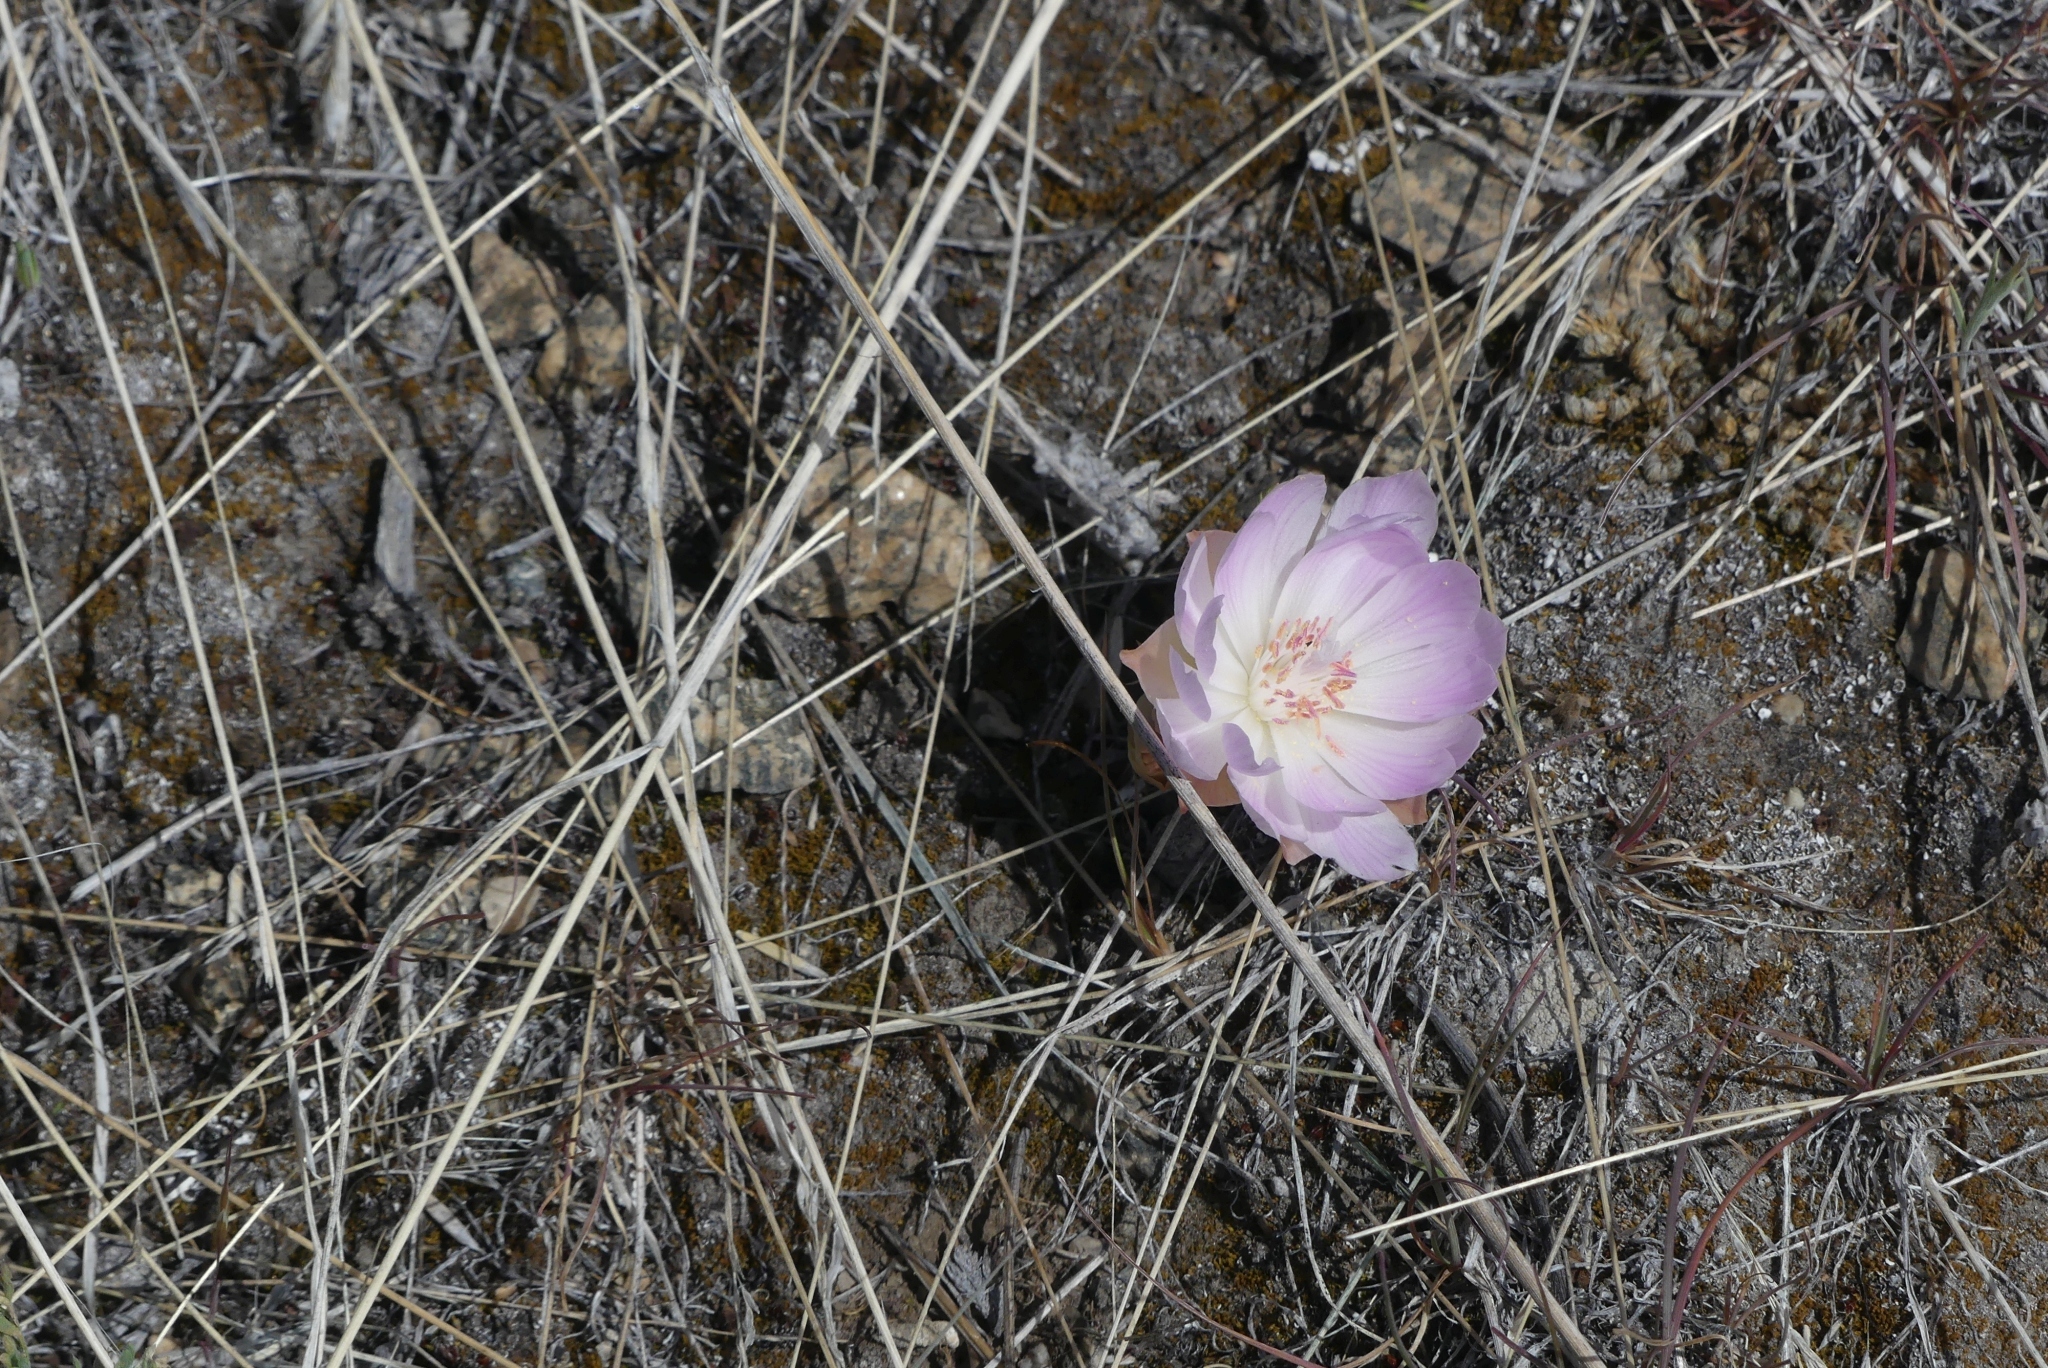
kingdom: Plantae
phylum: Tracheophyta
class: Magnoliopsida
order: Caryophyllales
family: Montiaceae
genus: Lewisia
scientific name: Lewisia rediviva
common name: Bitter-root
